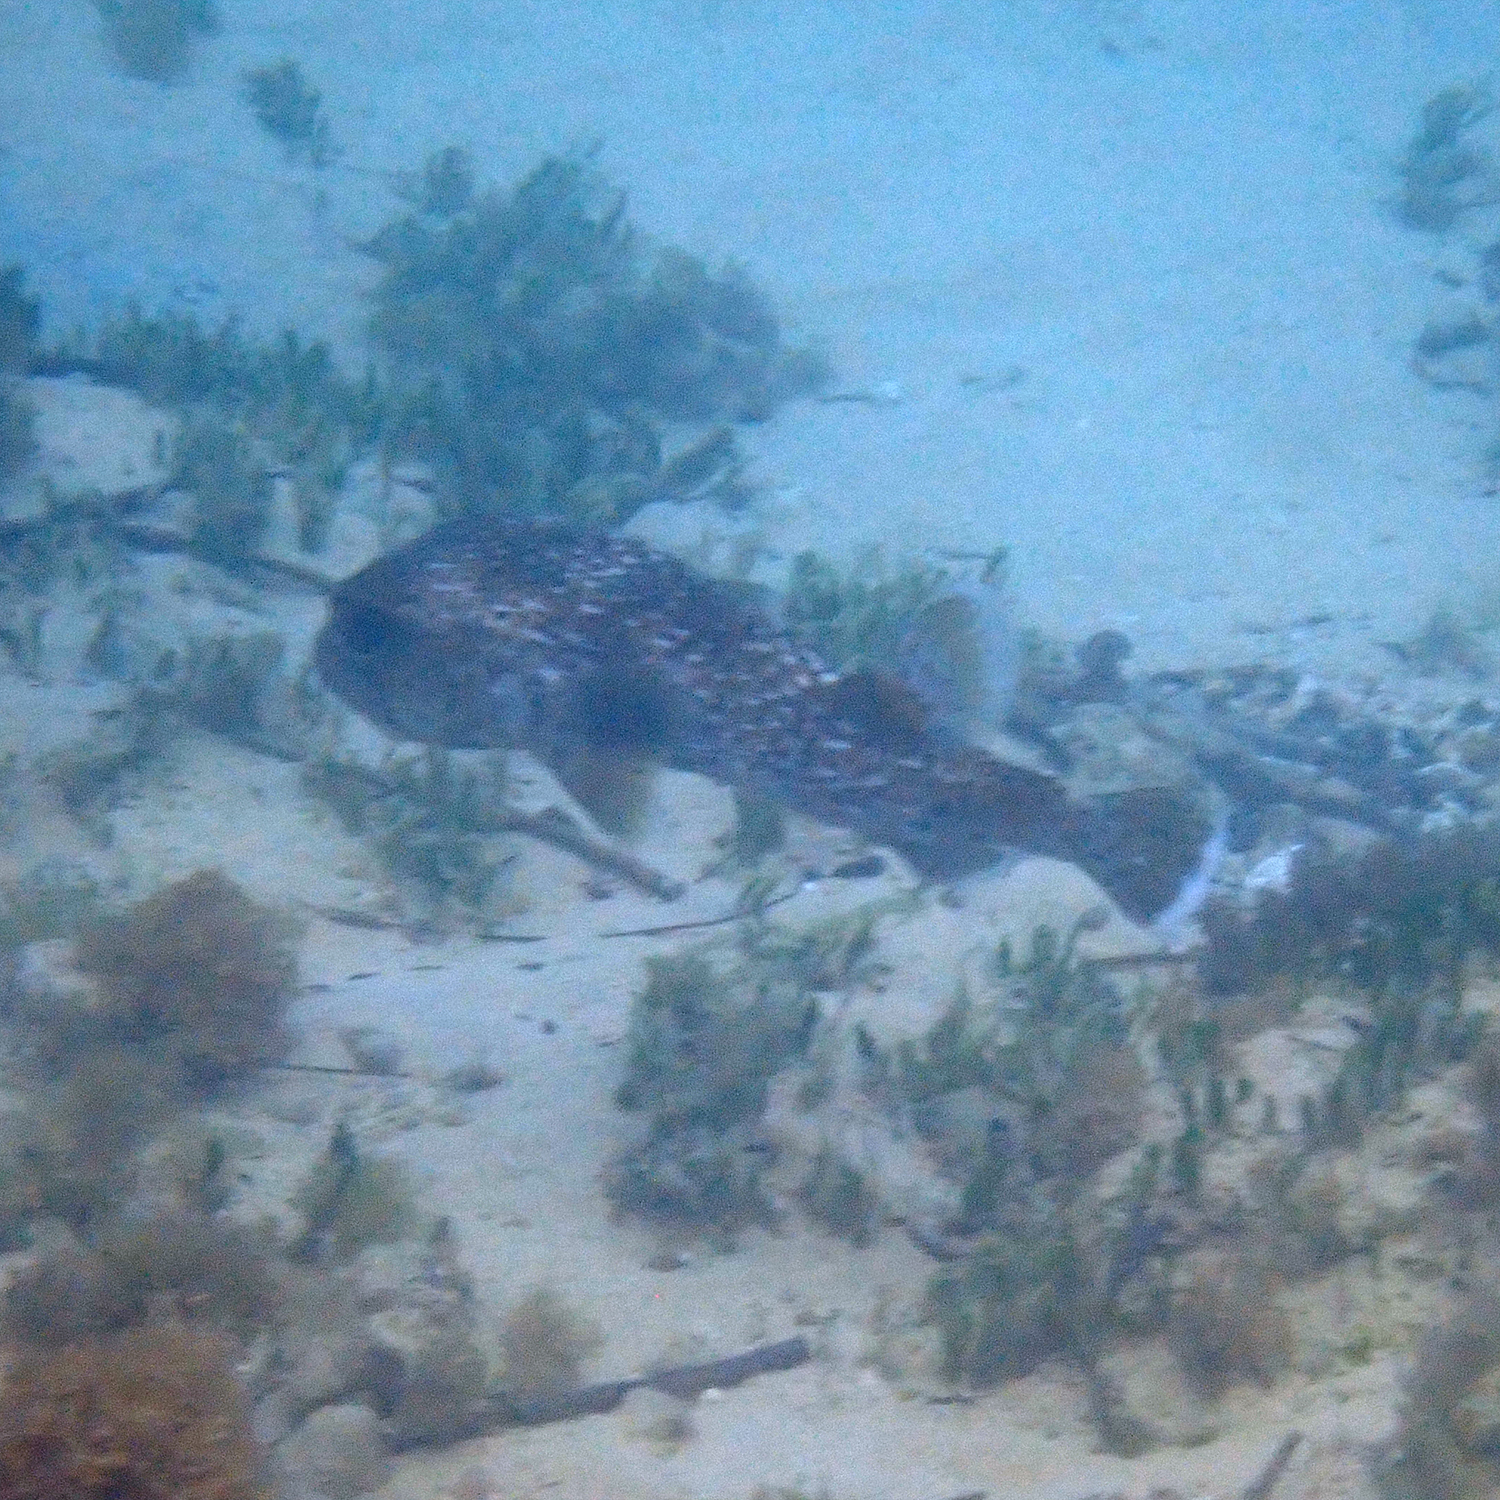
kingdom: Animalia
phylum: Chordata
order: Tetraodontiformes
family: Diodontidae
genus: Diodon
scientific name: Diodon hystrix
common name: Giant porcupinefish
